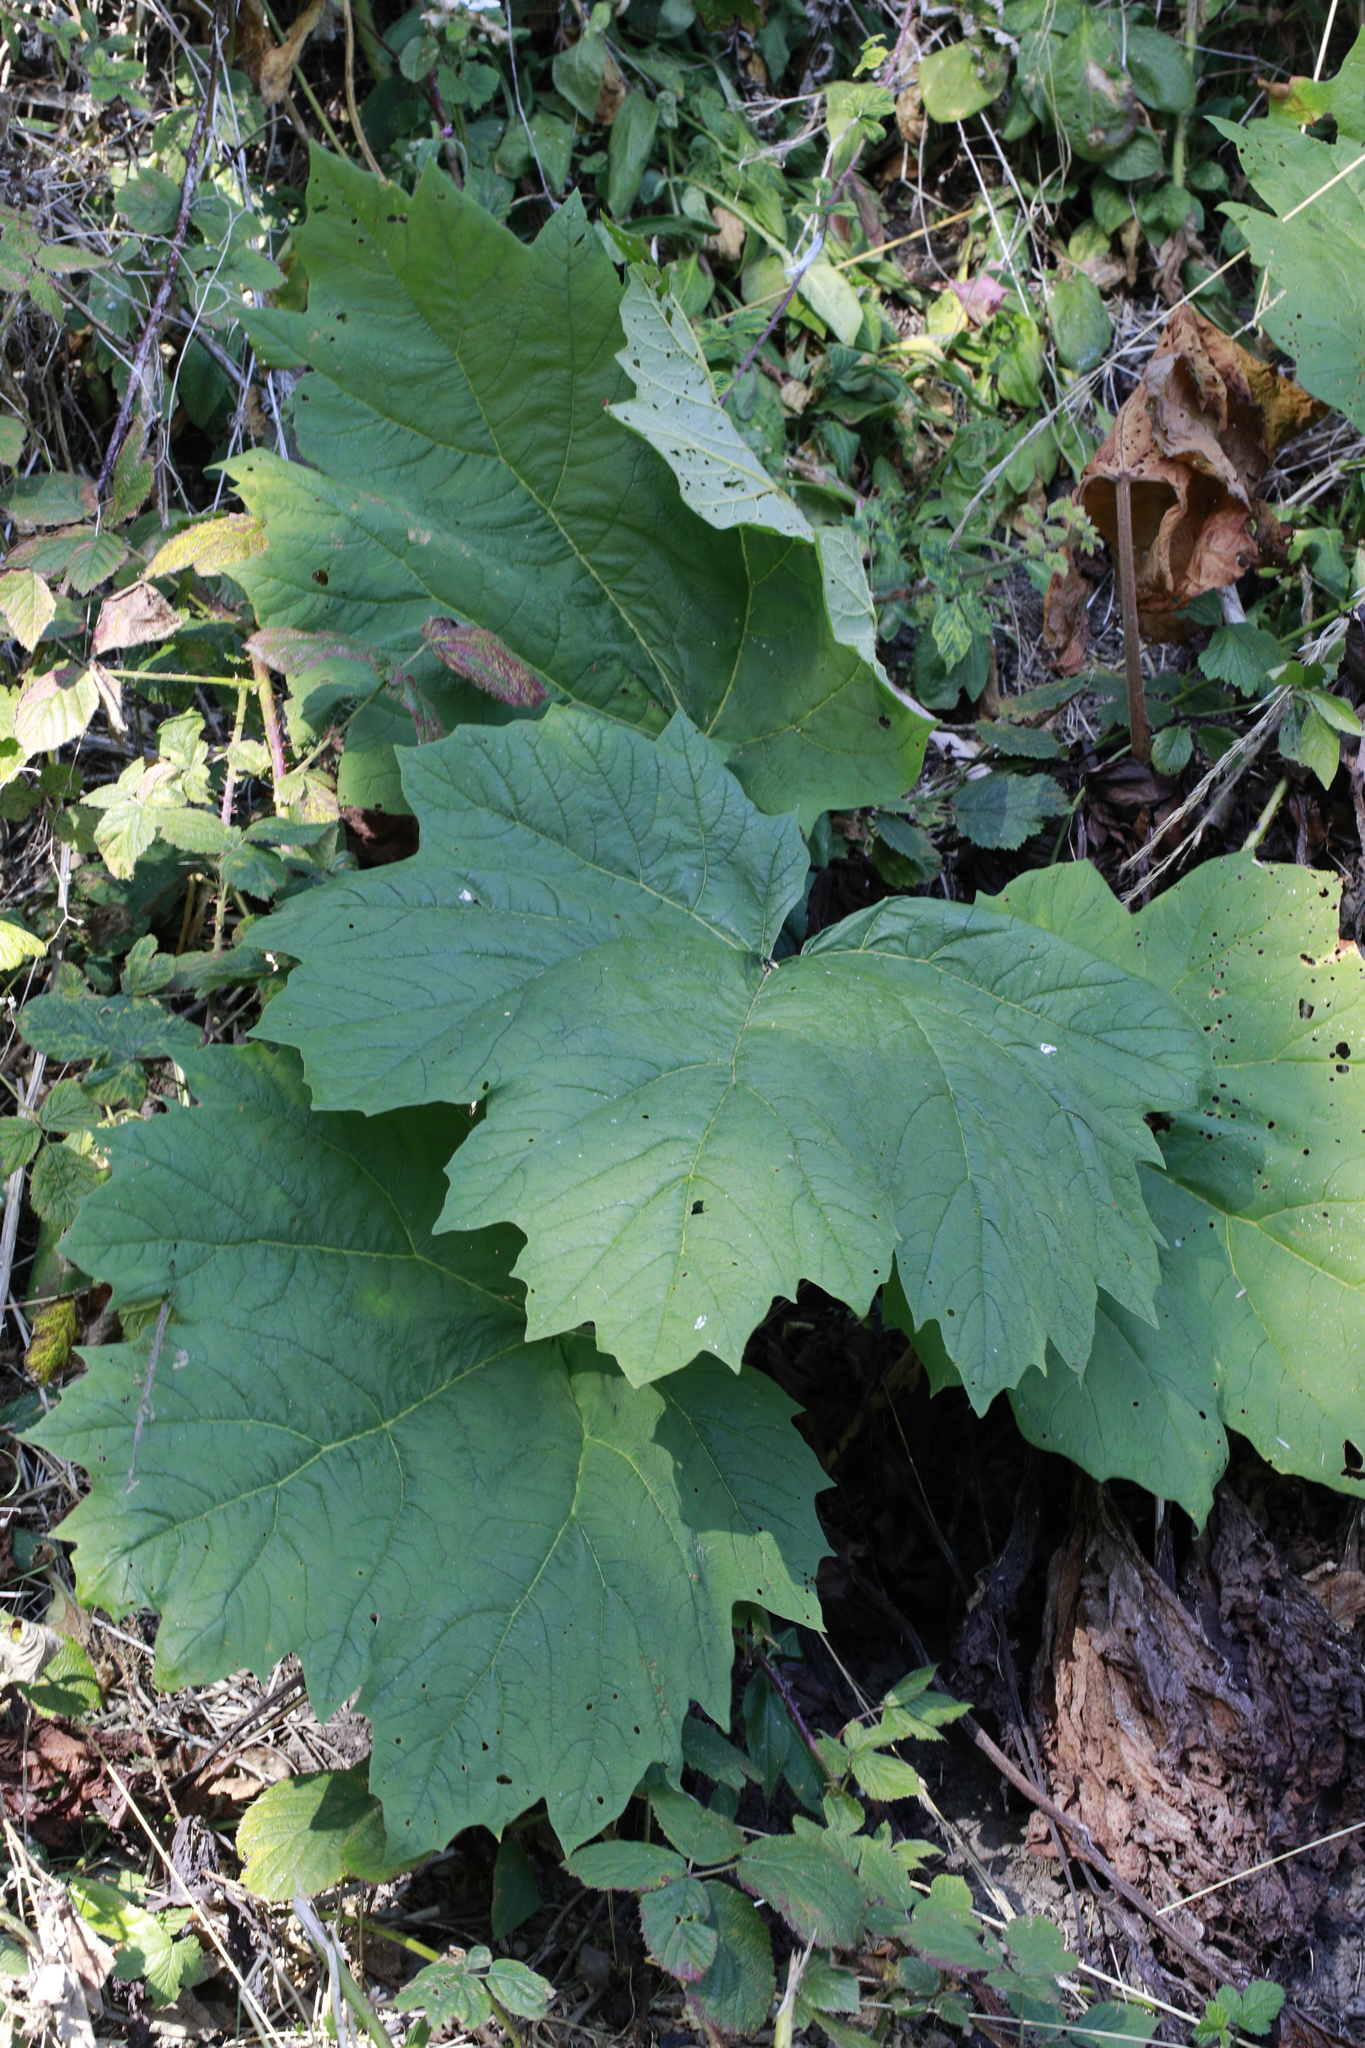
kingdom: Plantae
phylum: Tracheophyta
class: Magnoliopsida
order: Sapindales
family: Sapindaceae
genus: Acer
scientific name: Acer platanoides
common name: Norway maple
